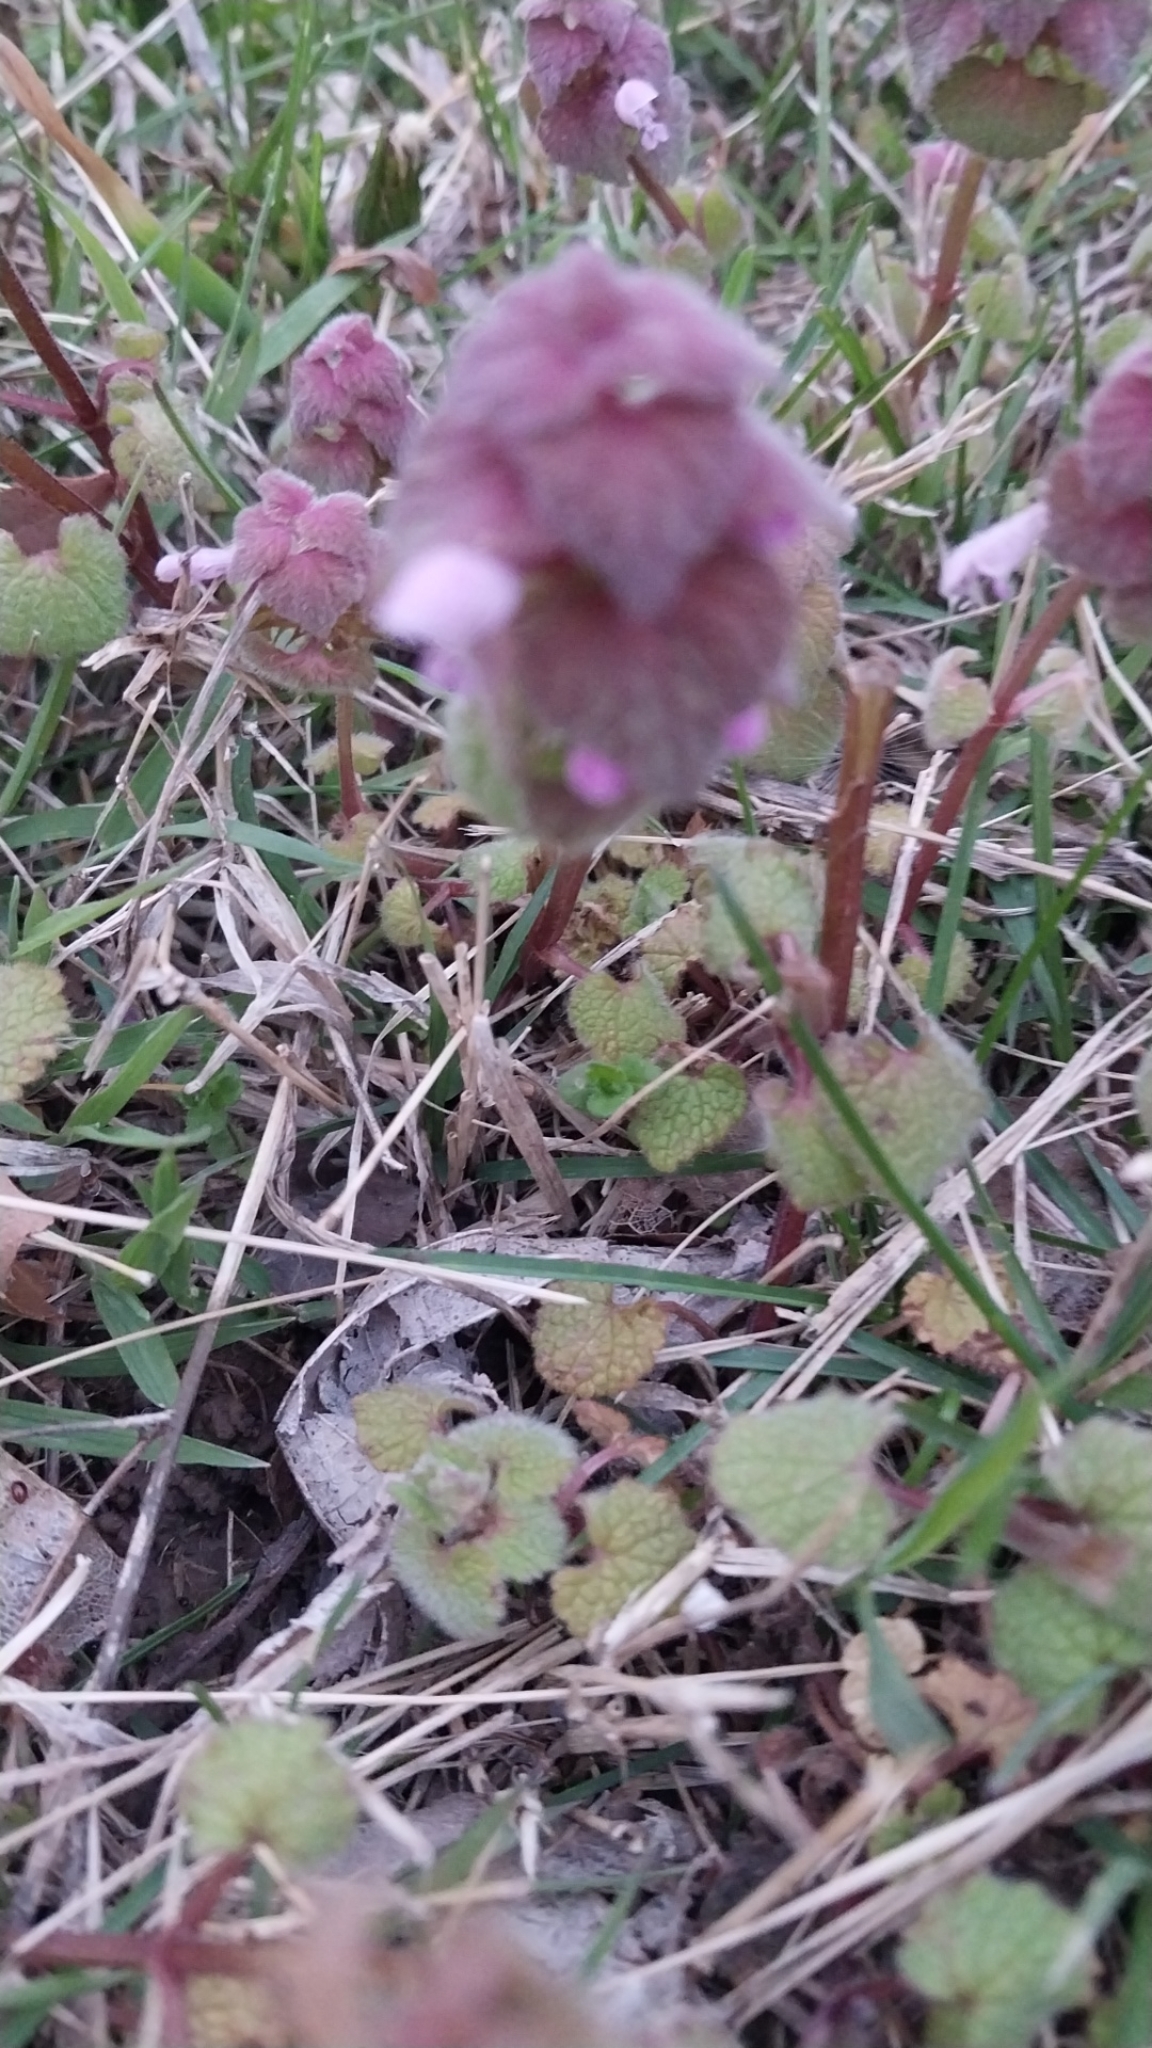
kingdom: Plantae
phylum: Tracheophyta
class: Magnoliopsida
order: Lamiales
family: Lamiaceae
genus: Lamium
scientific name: Lamium purpureum
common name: Red dead-nettle
